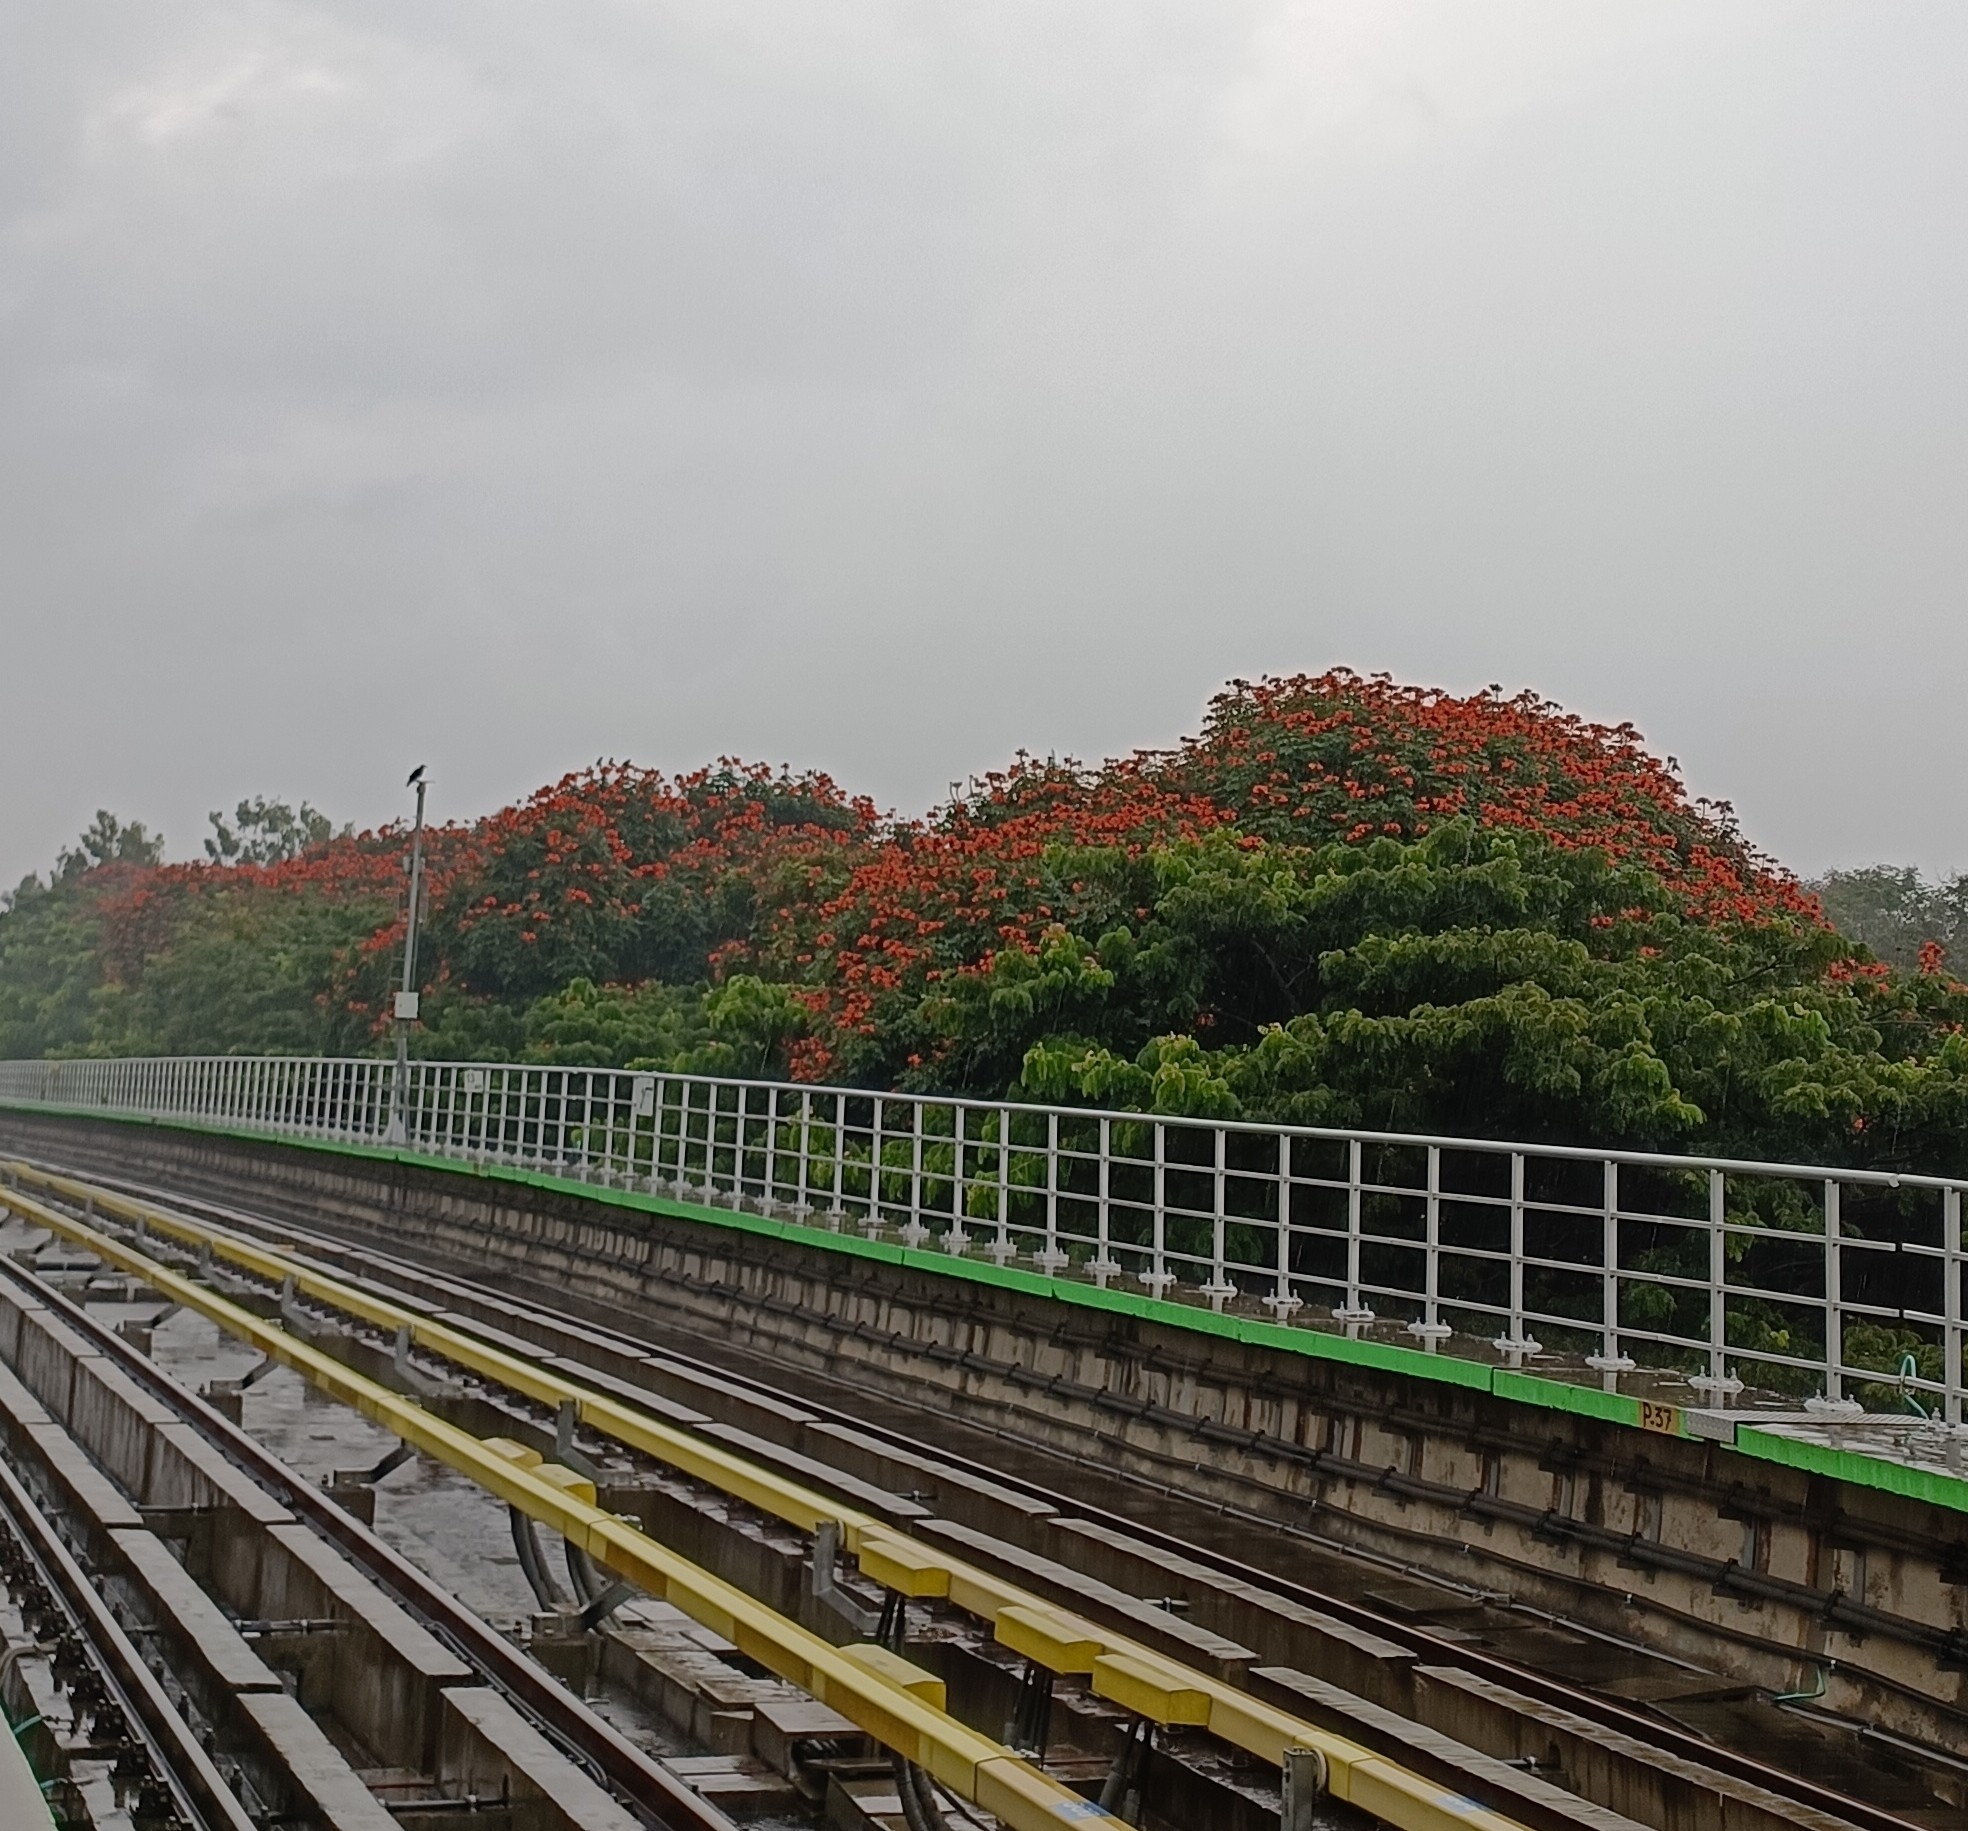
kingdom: Plantae
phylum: Tracheophyta
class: Magnoliopsida
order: Lamiales
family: Bignoniaceae
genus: Spathodea
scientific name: Spathodea campanulata
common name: African tuliptree
